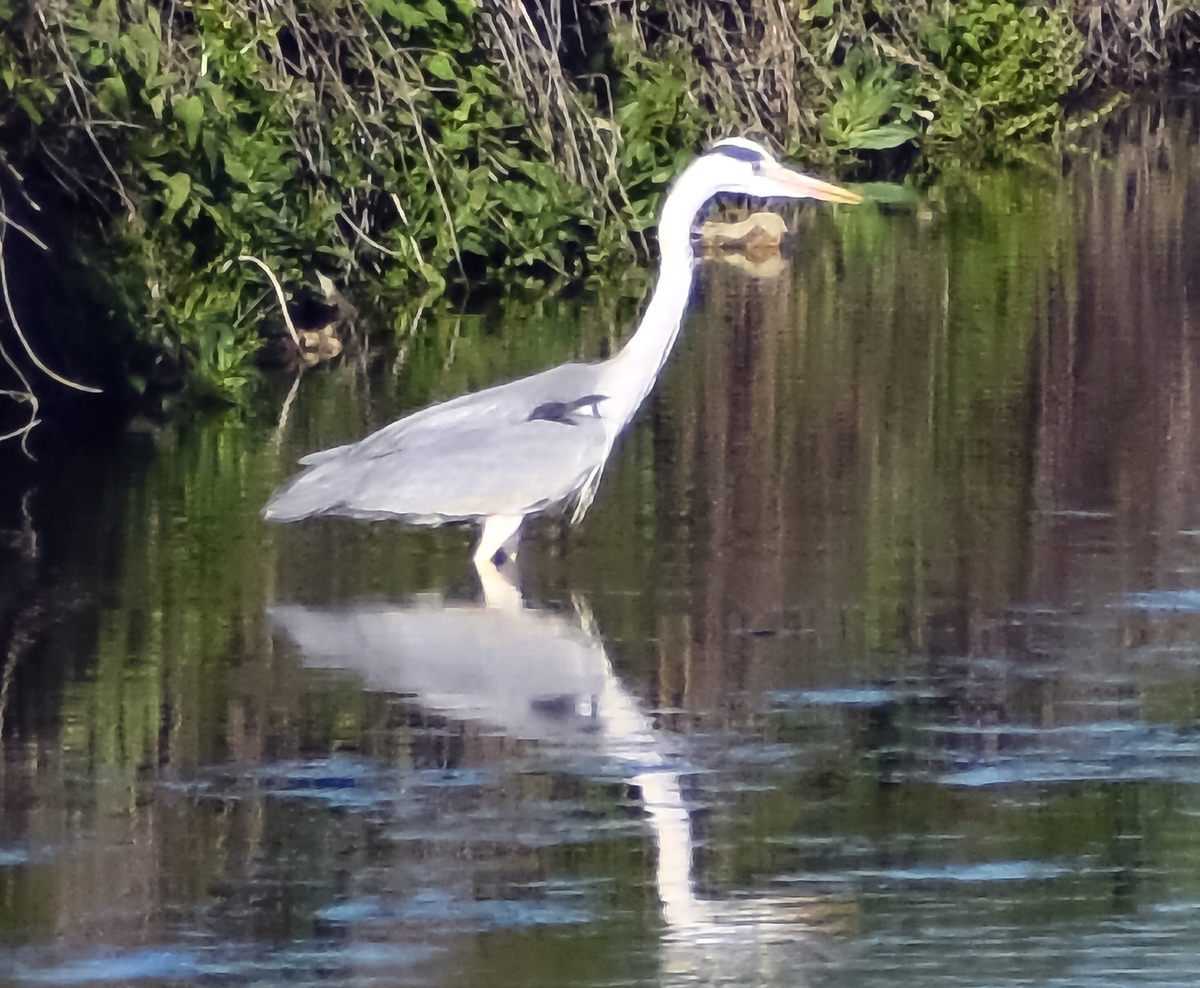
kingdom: Animalia
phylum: Chordata
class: Aves
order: Pelecaniformes
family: Ardeidae
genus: Ardea
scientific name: Ardea cinerea
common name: Grey heron
